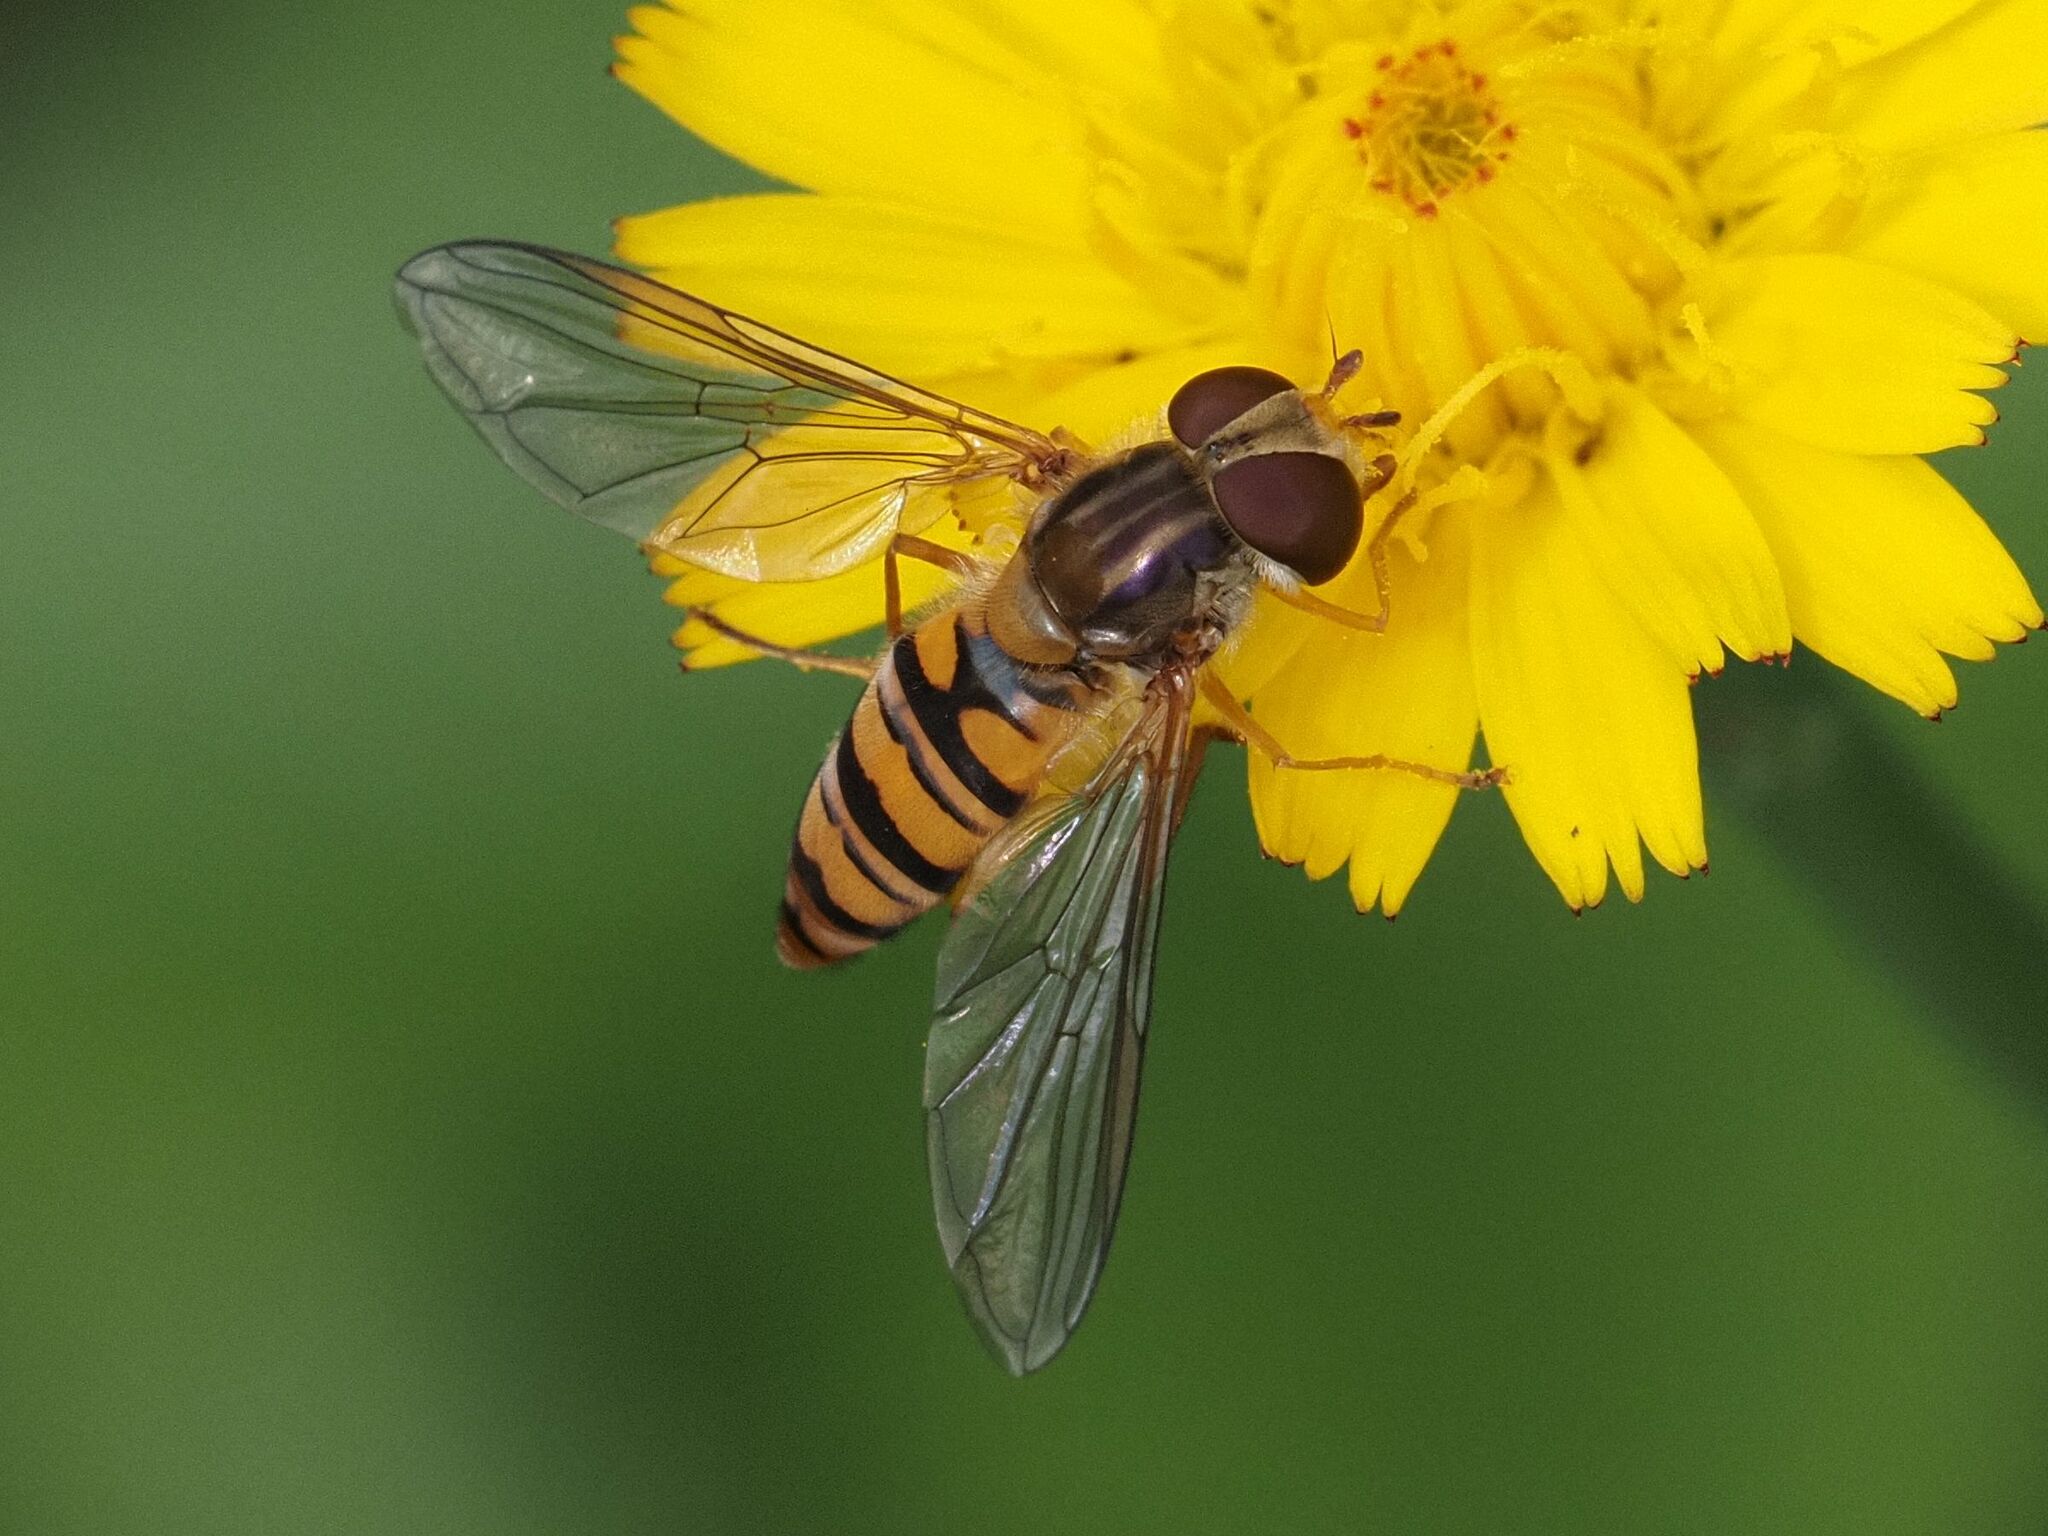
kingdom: Animalia
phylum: Arthropoda
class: Insecta
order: Diptera
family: Syrphidae
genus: Episyrphus
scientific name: Episyrphus balteatus
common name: Marmalade hoverfly
